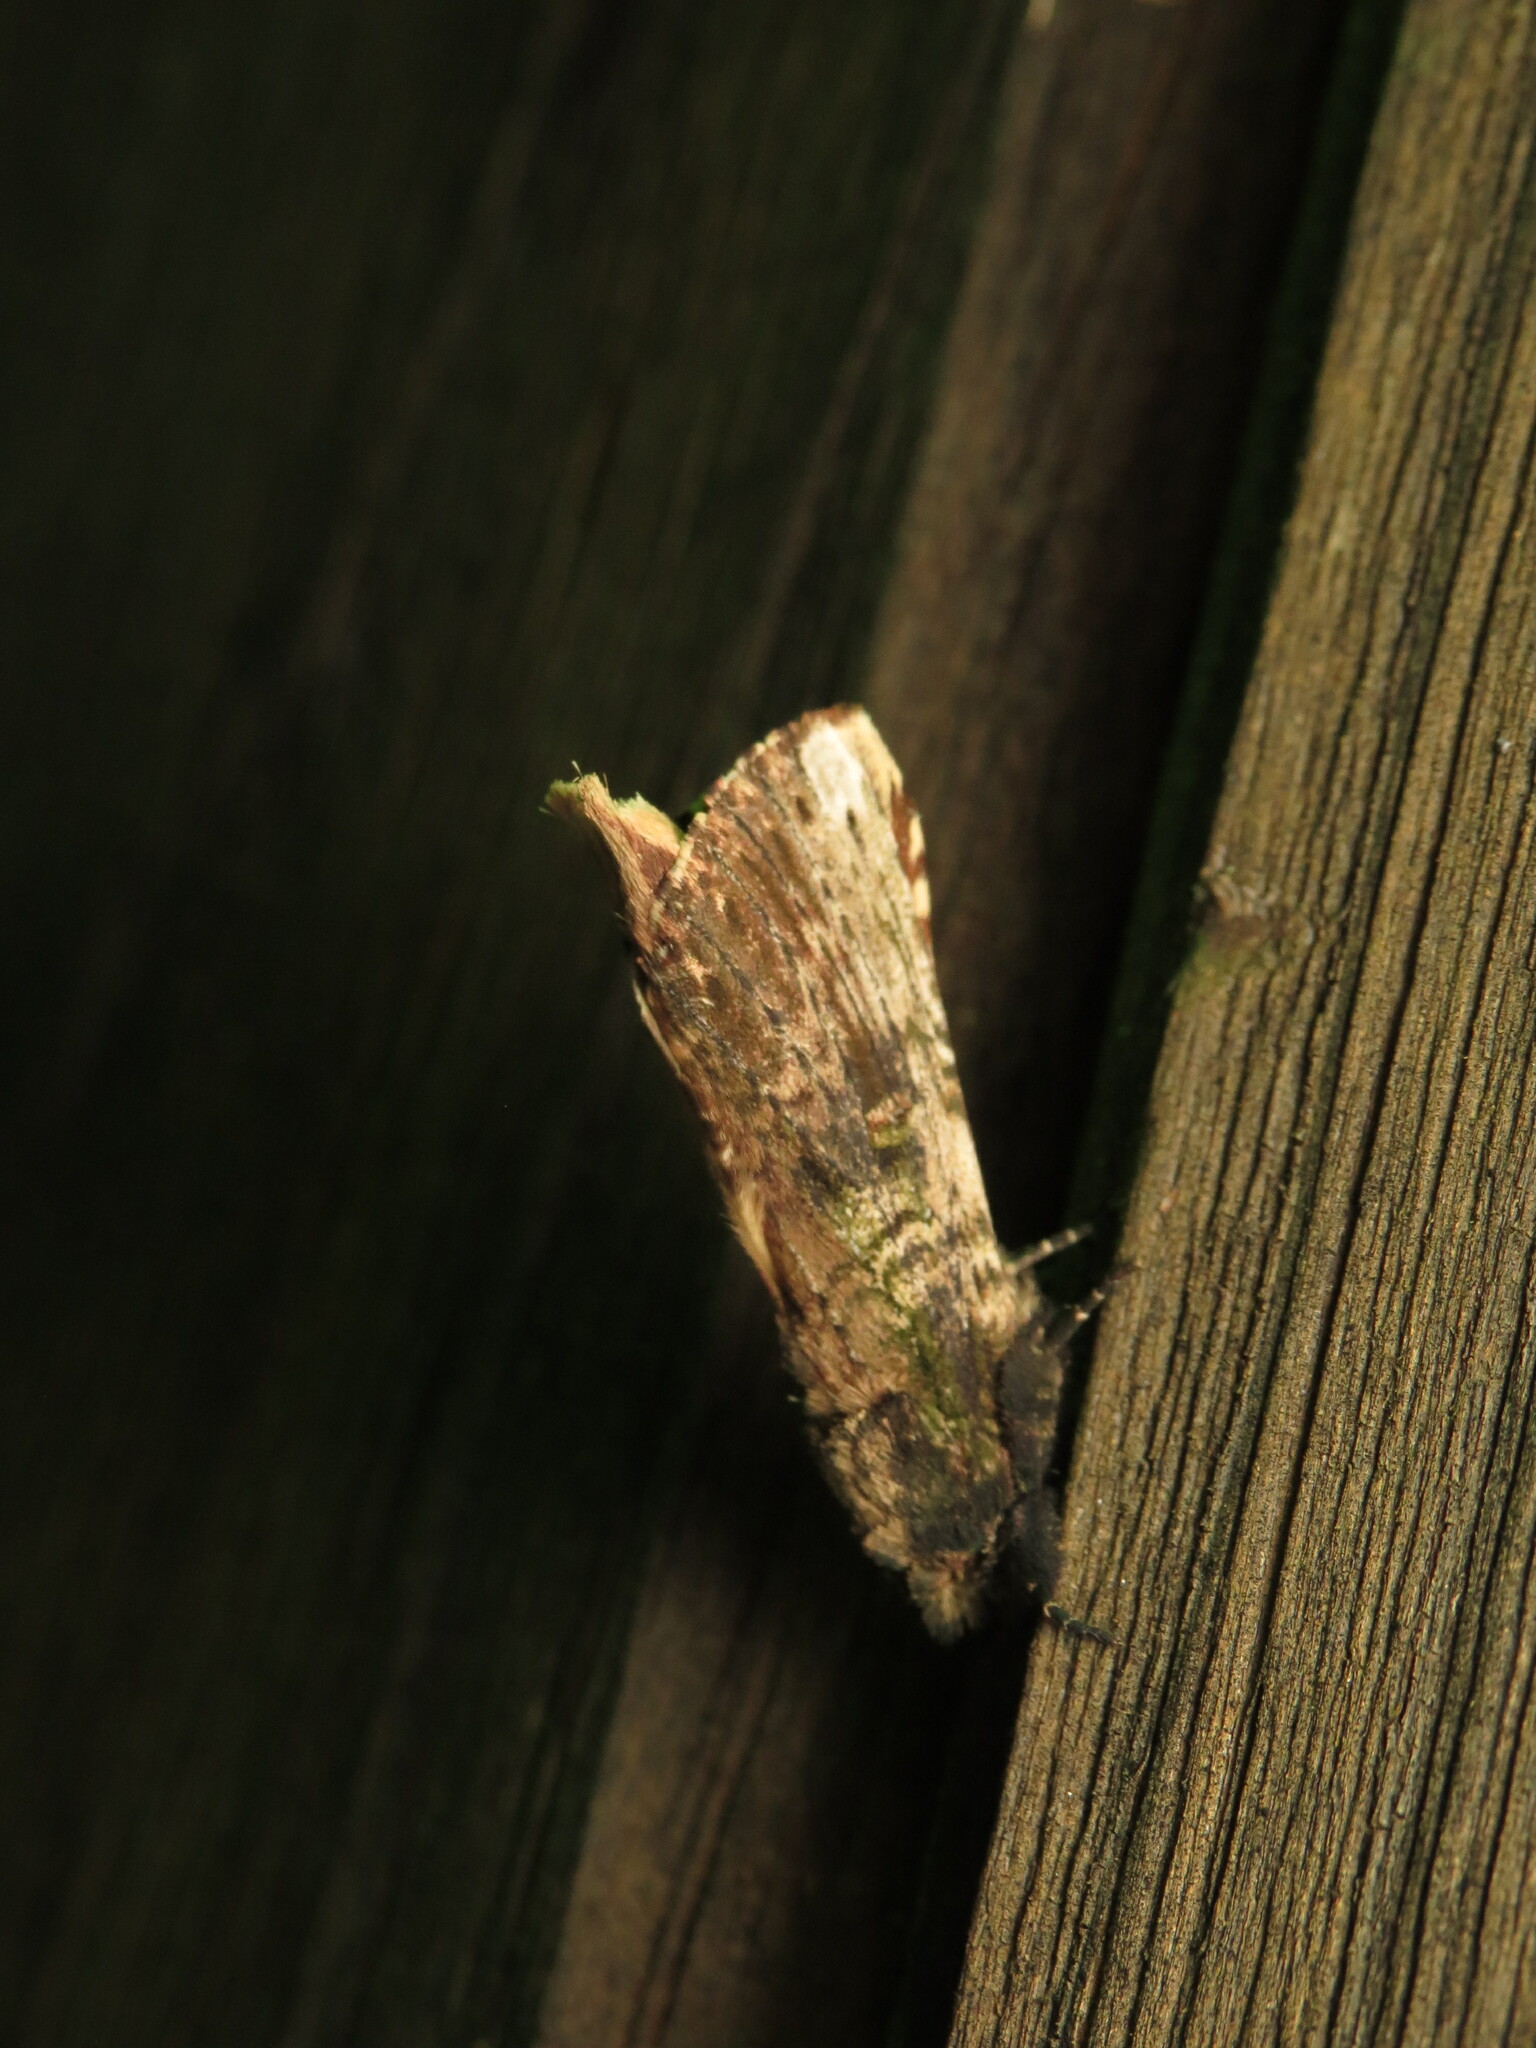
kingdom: Animalia
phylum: Arthropoda
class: Insecta
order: Lepidoptera
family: Notodontidae
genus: Schizura
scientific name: Schizura ipomaeae
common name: Morning-glory prominent
